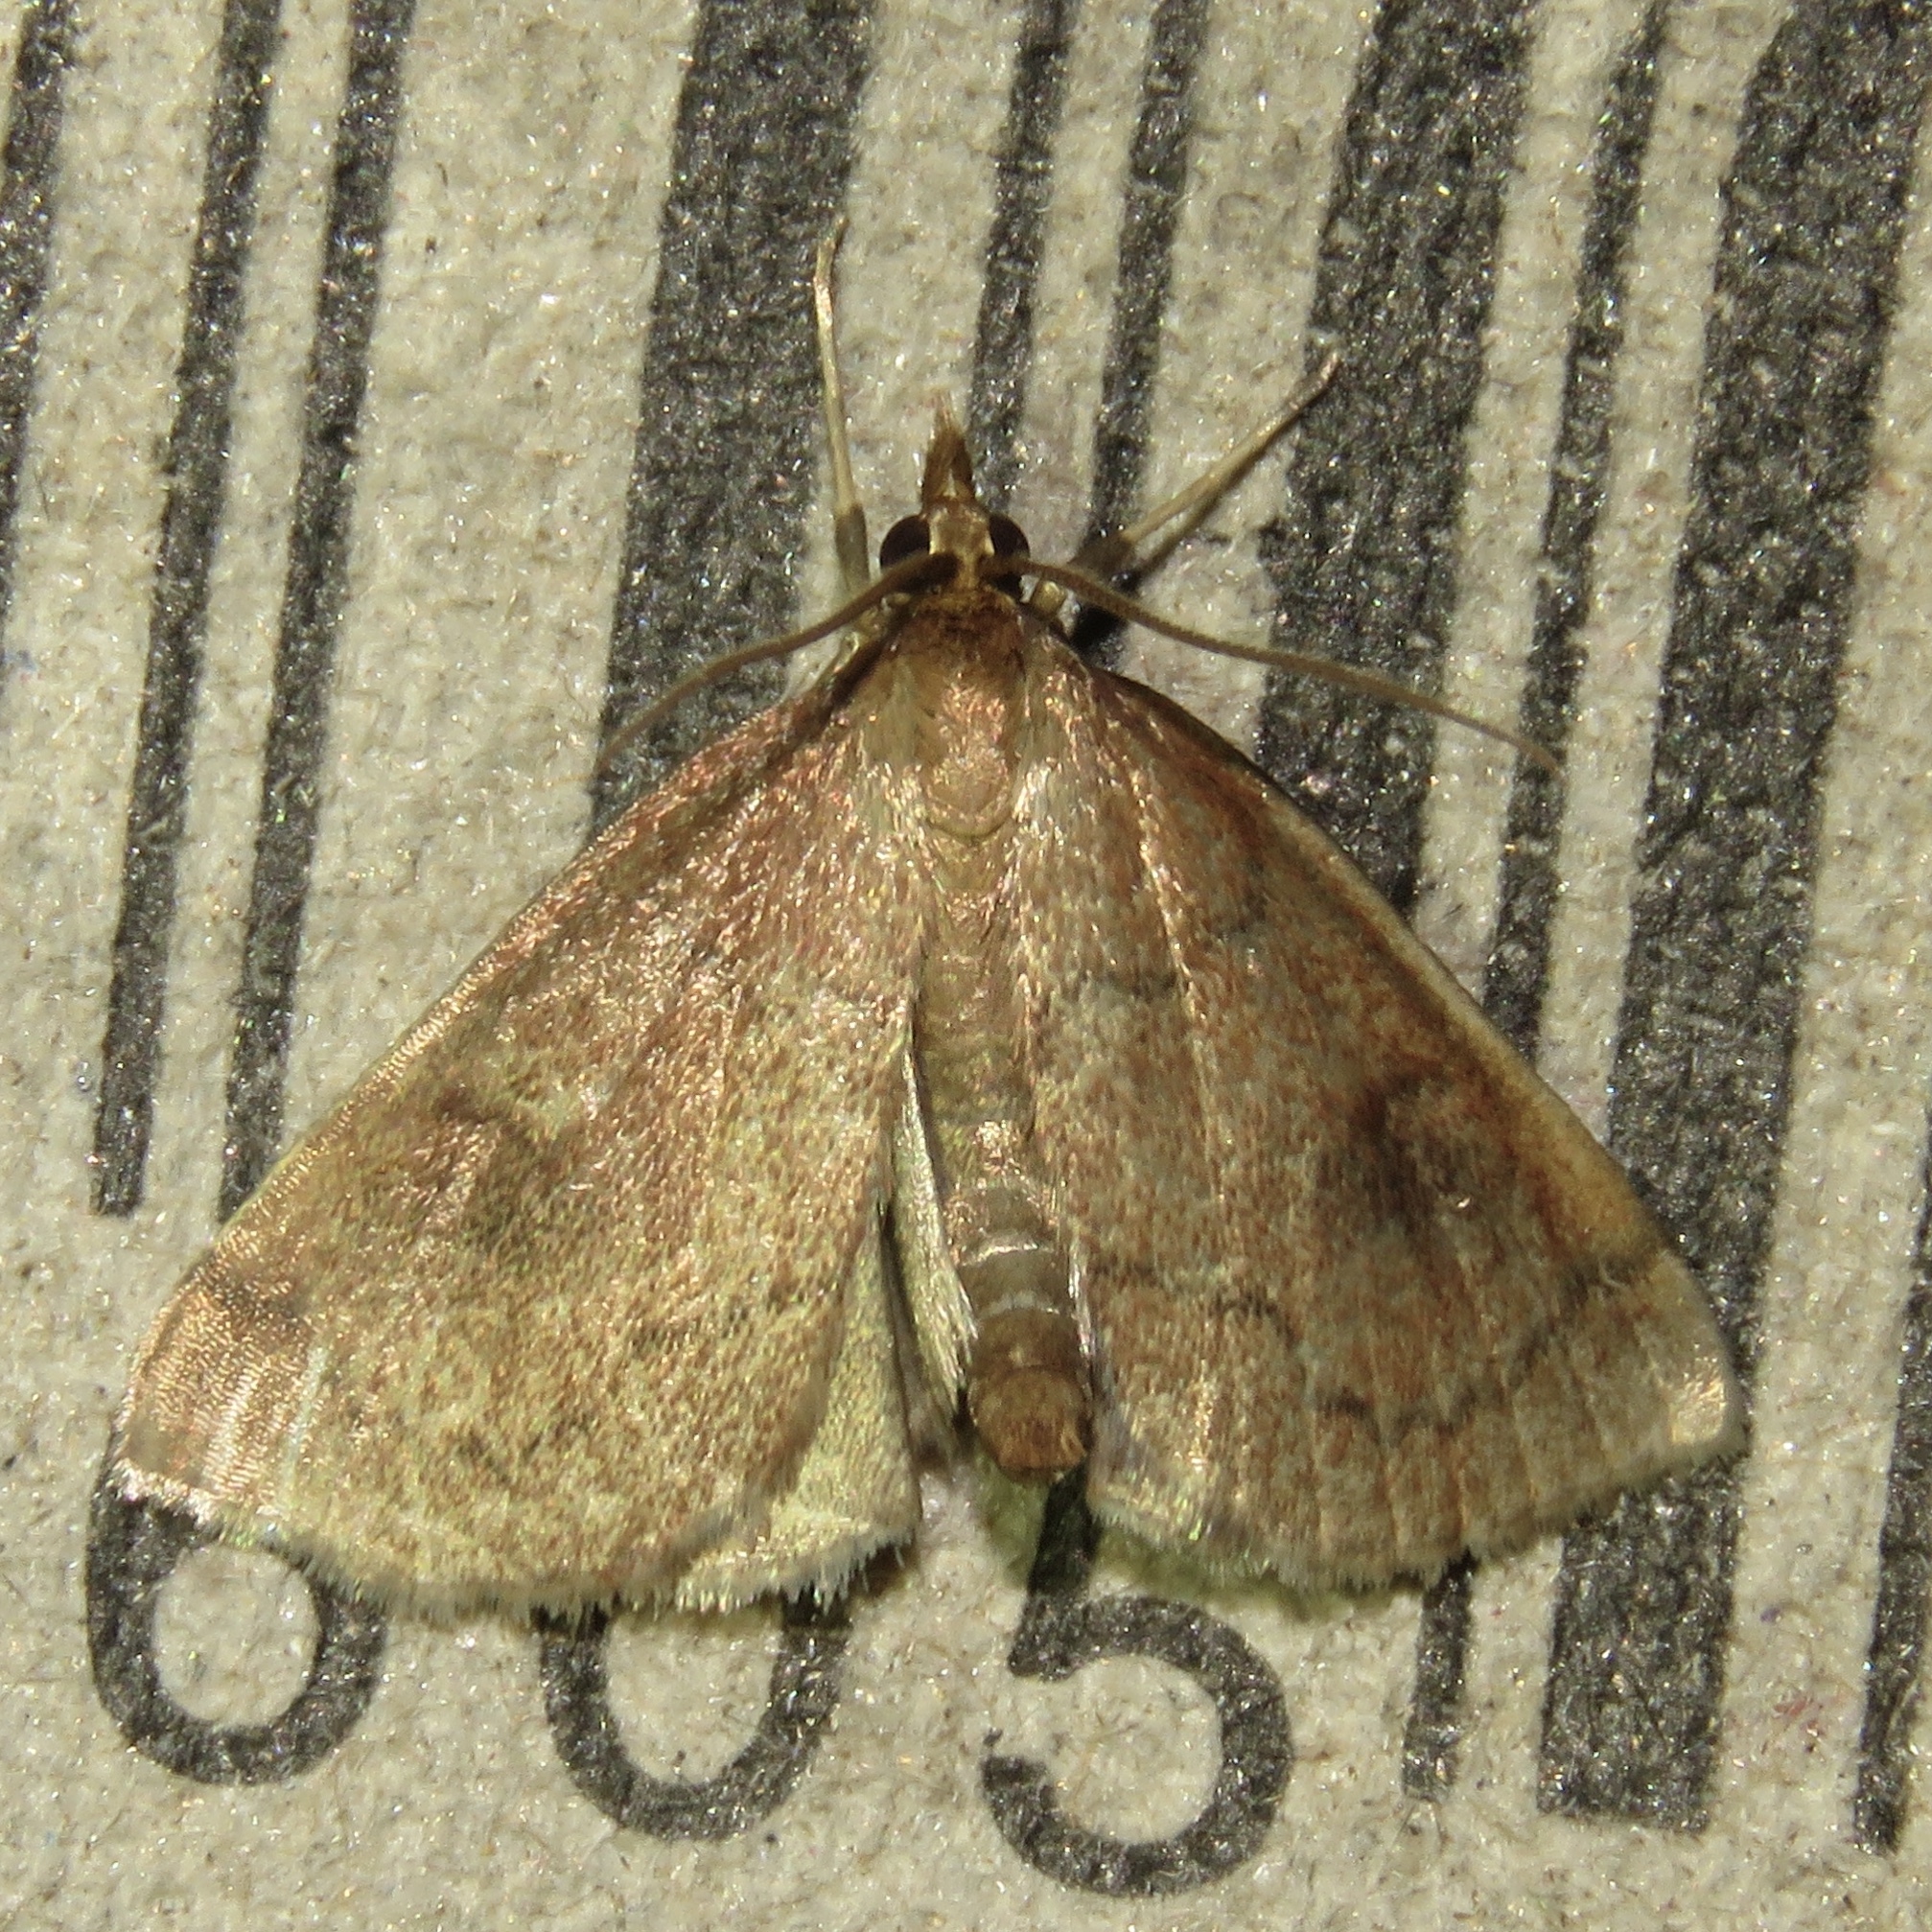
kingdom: Animalia
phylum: Arthropoda
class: Insecta
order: Lepidoptera
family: Crambidae
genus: Fumibotys
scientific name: Fumibotys fumalis
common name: Mint root borer moth
